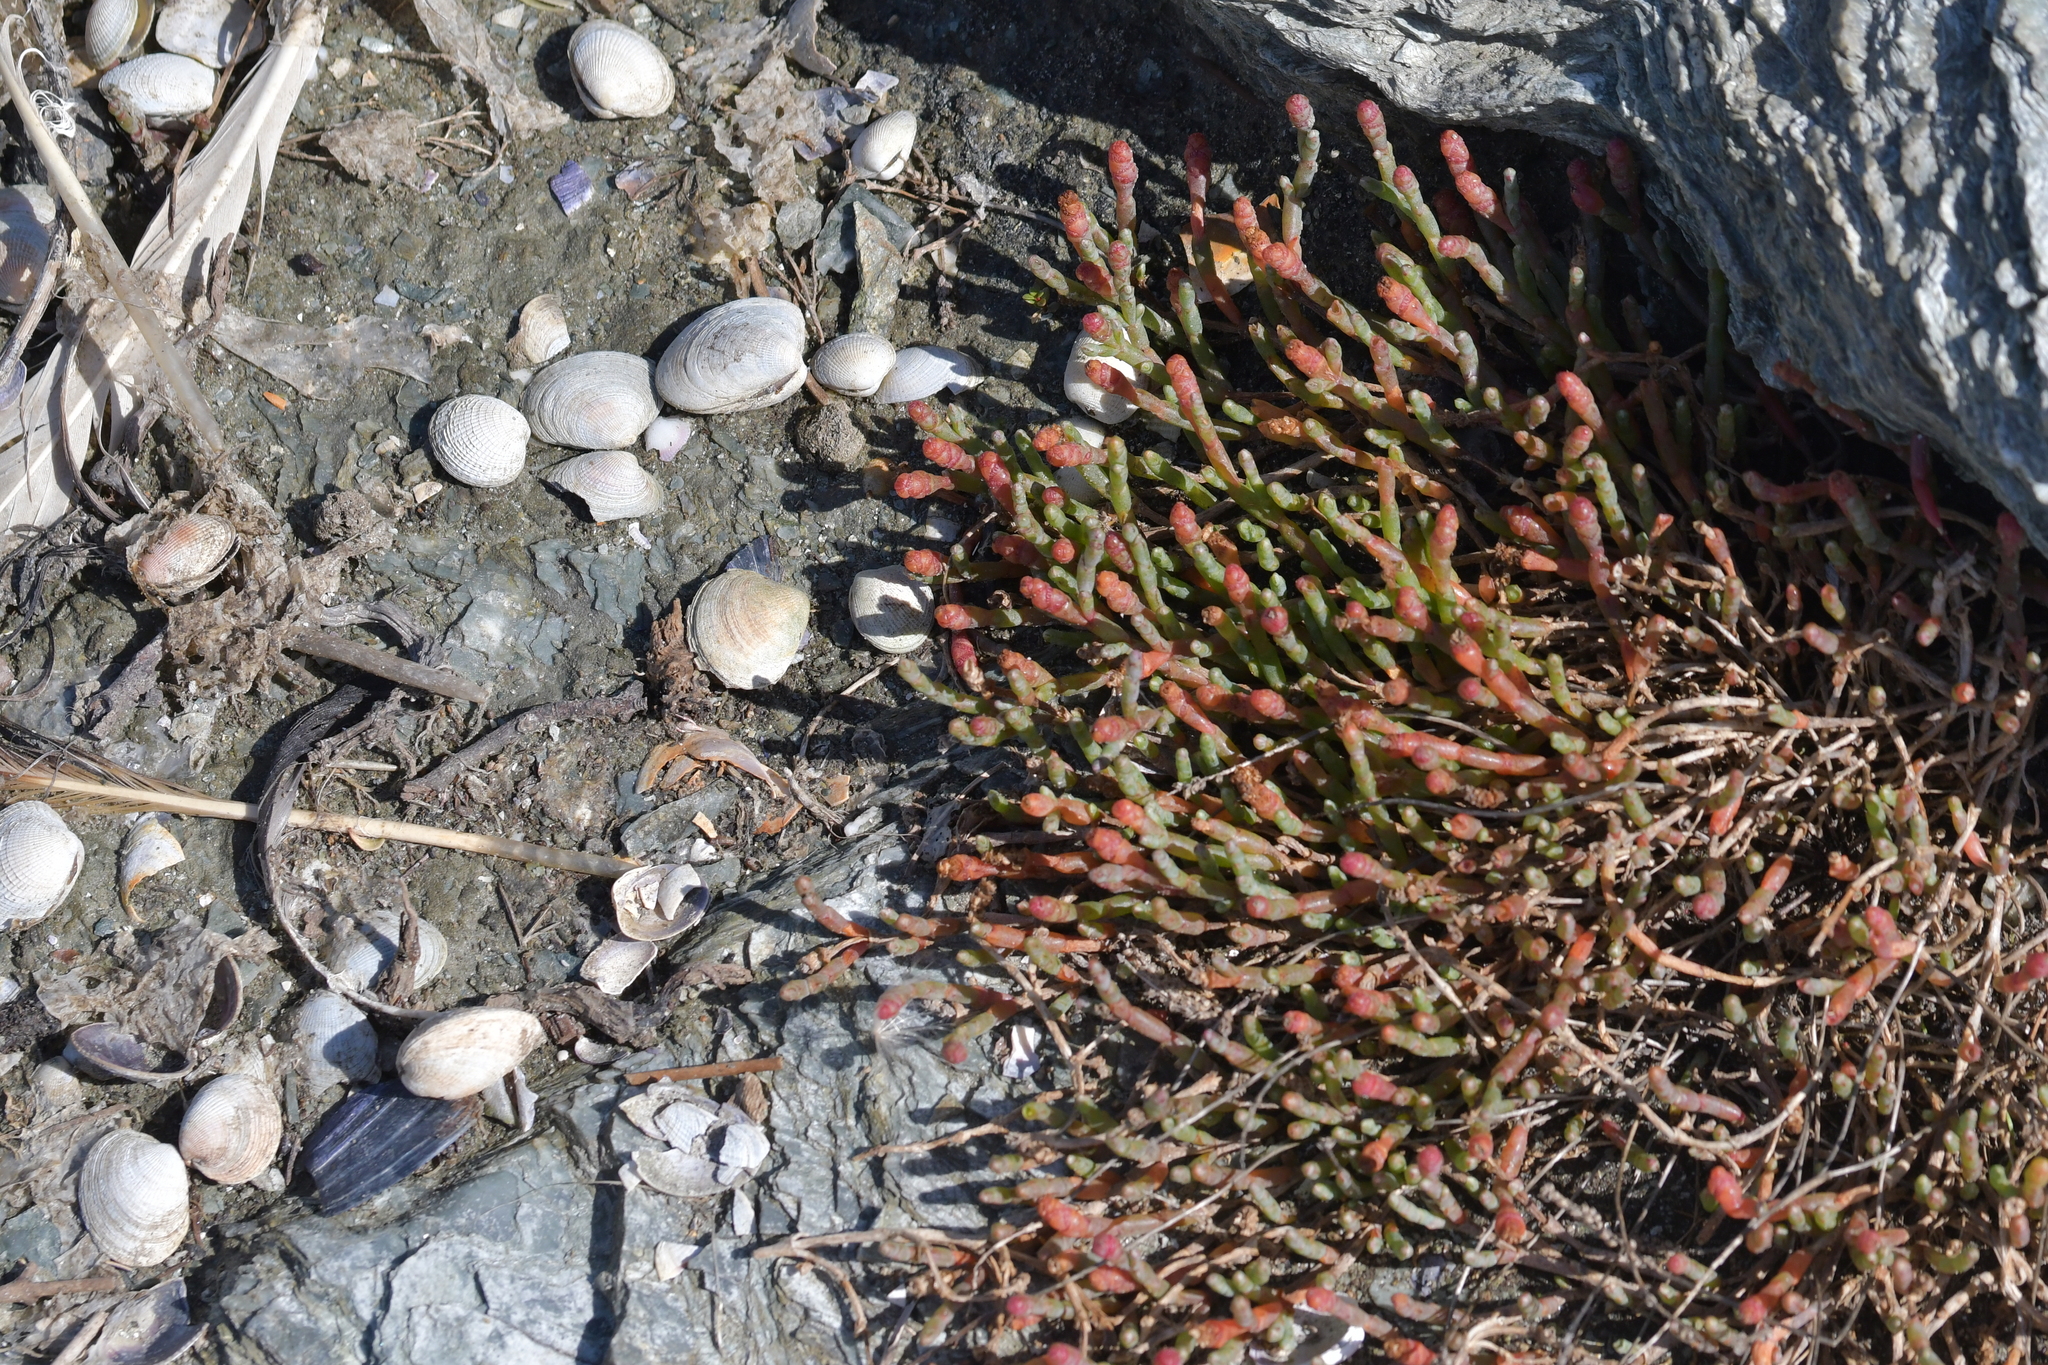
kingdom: Plantae
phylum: Tracheophyta
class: Magnoliopsida
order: Caryophyllales
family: Amaranthaceae
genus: Salicornia
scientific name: Salicornia quinqueflora
